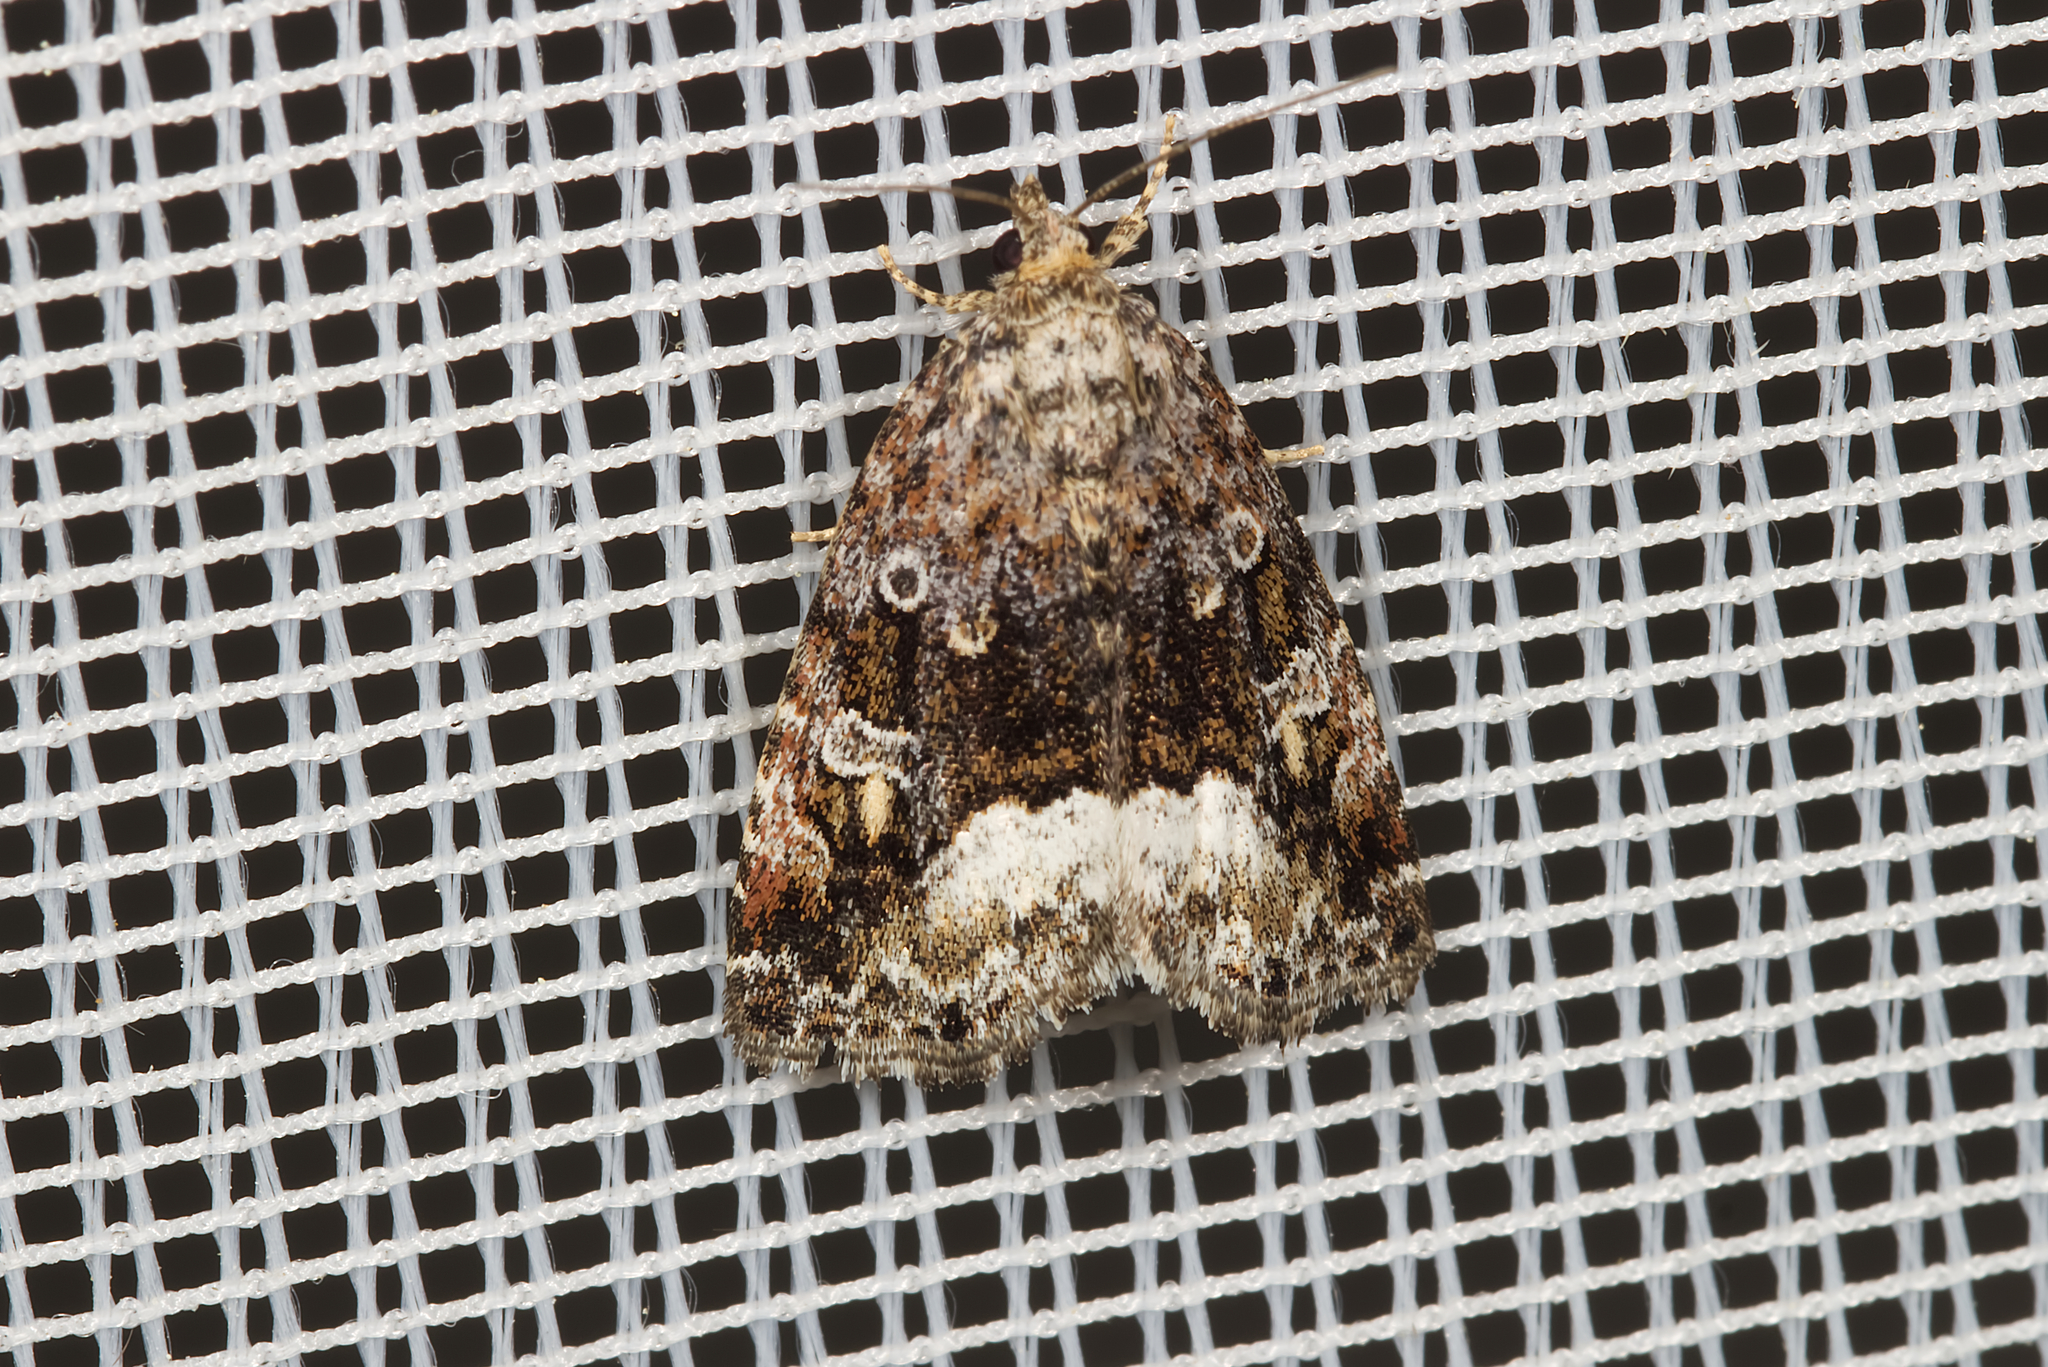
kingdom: Animalia
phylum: Arthropoda
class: Insecta
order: Lepidoptera
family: Noctuidae
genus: Deltote
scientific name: Deltote pygarga
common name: Marbled white spot
